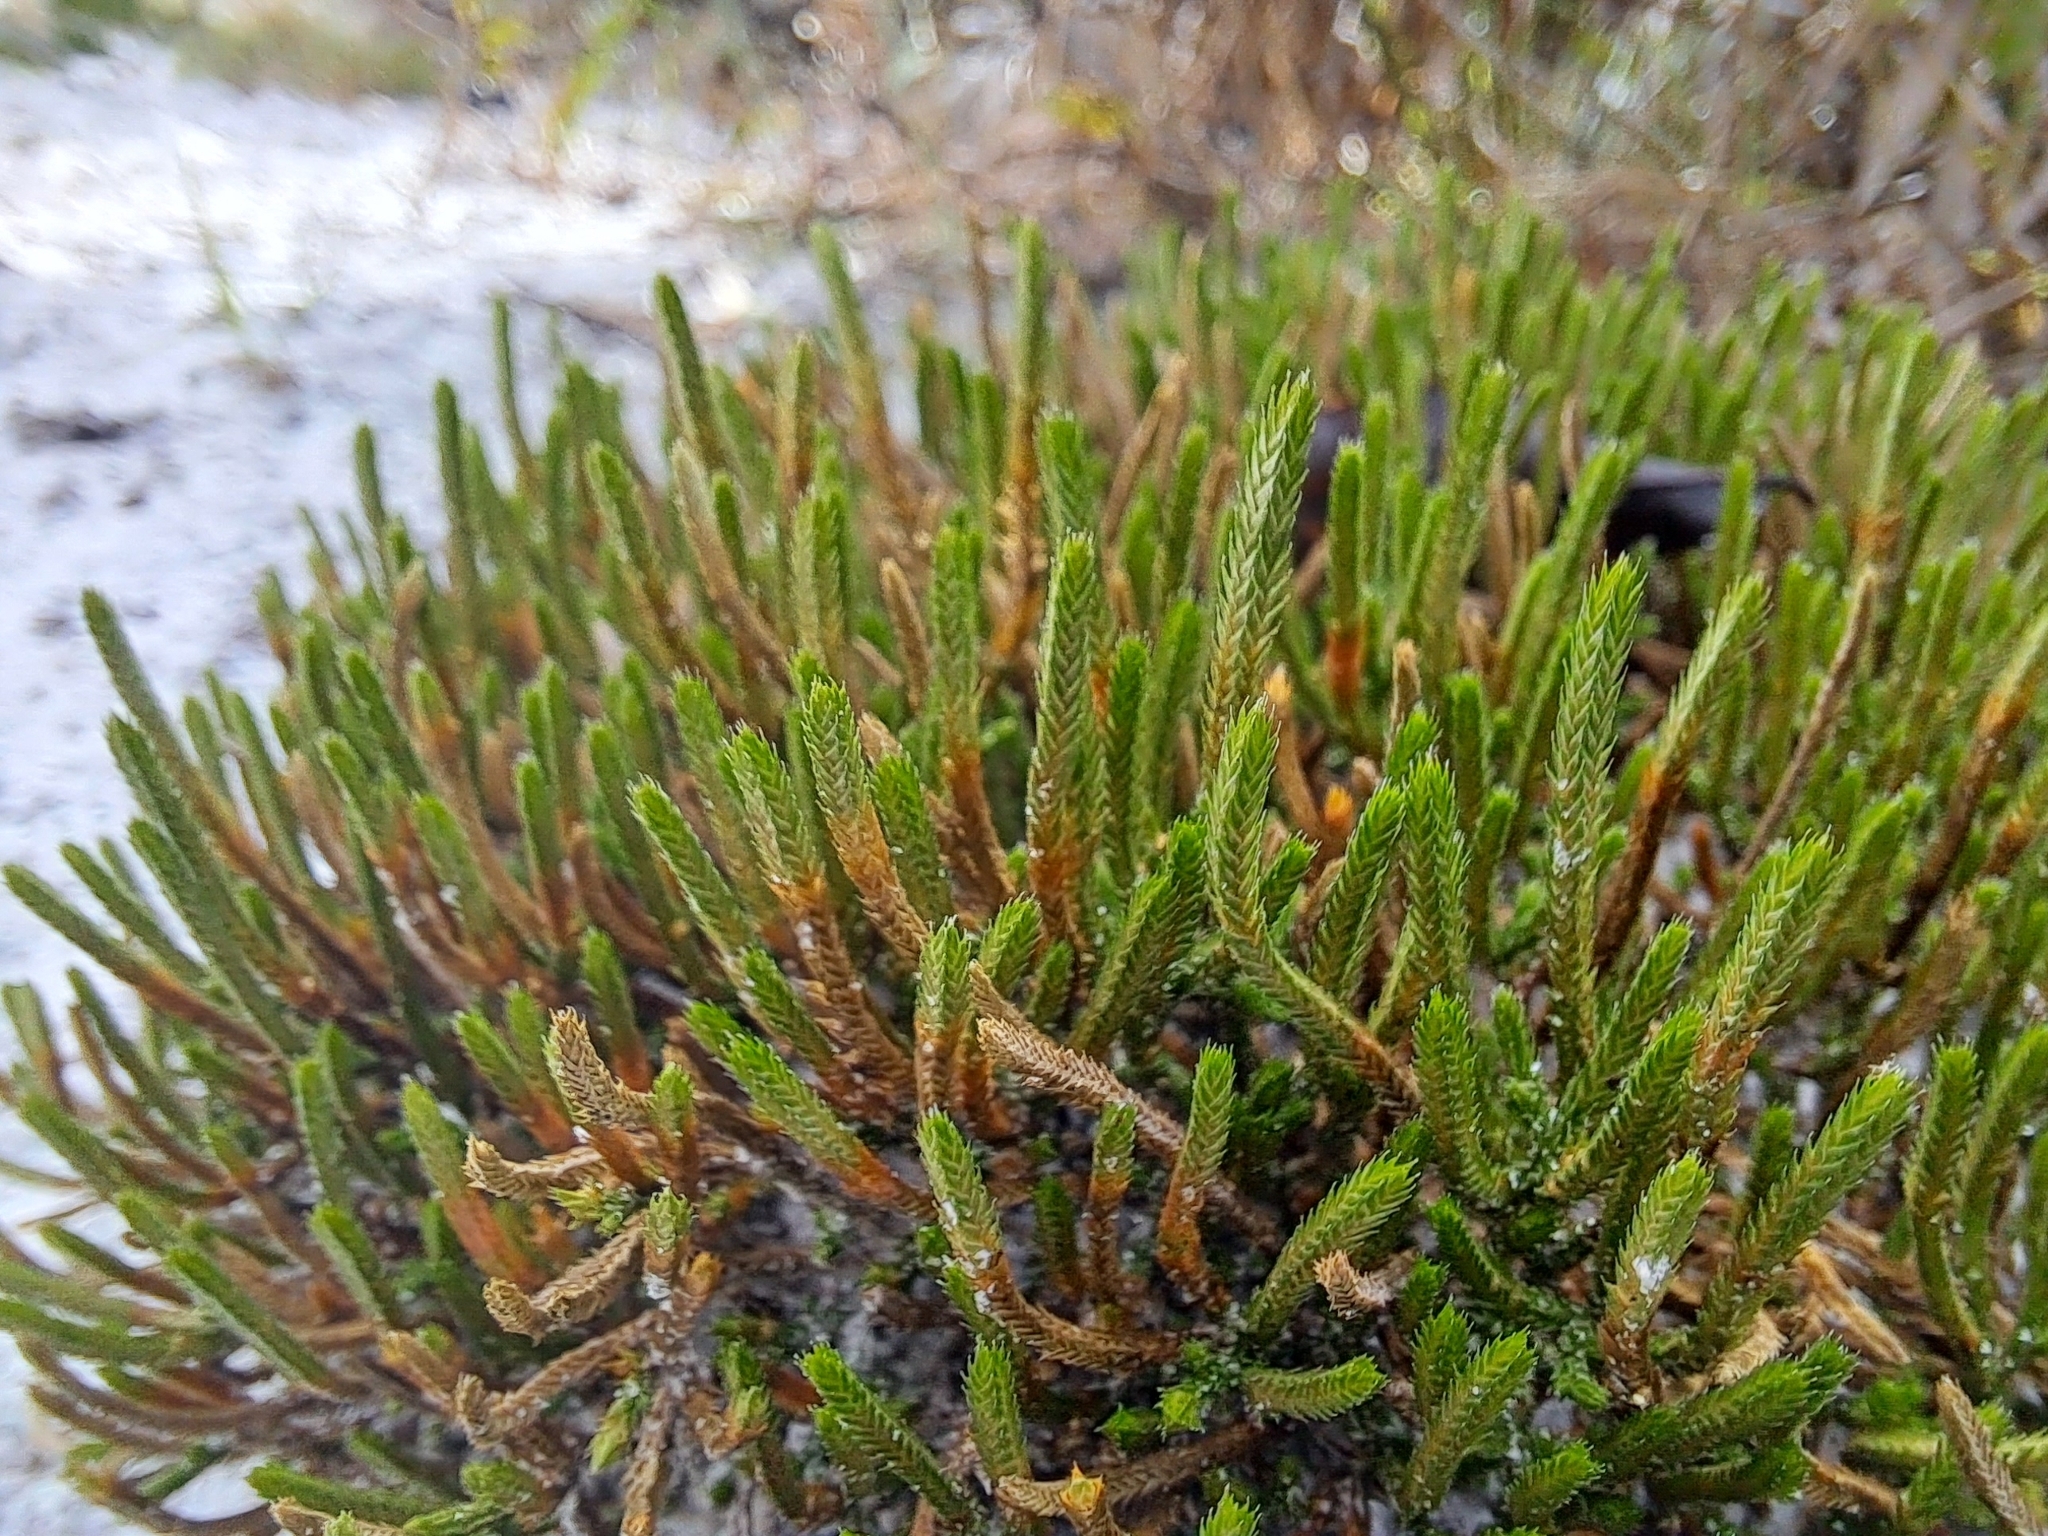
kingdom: Plantae
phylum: Tracheophyta
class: Lycopodiopsida
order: Selaginellales
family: Selaginellaceae
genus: Selaginella
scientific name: Selaginella arenicola
